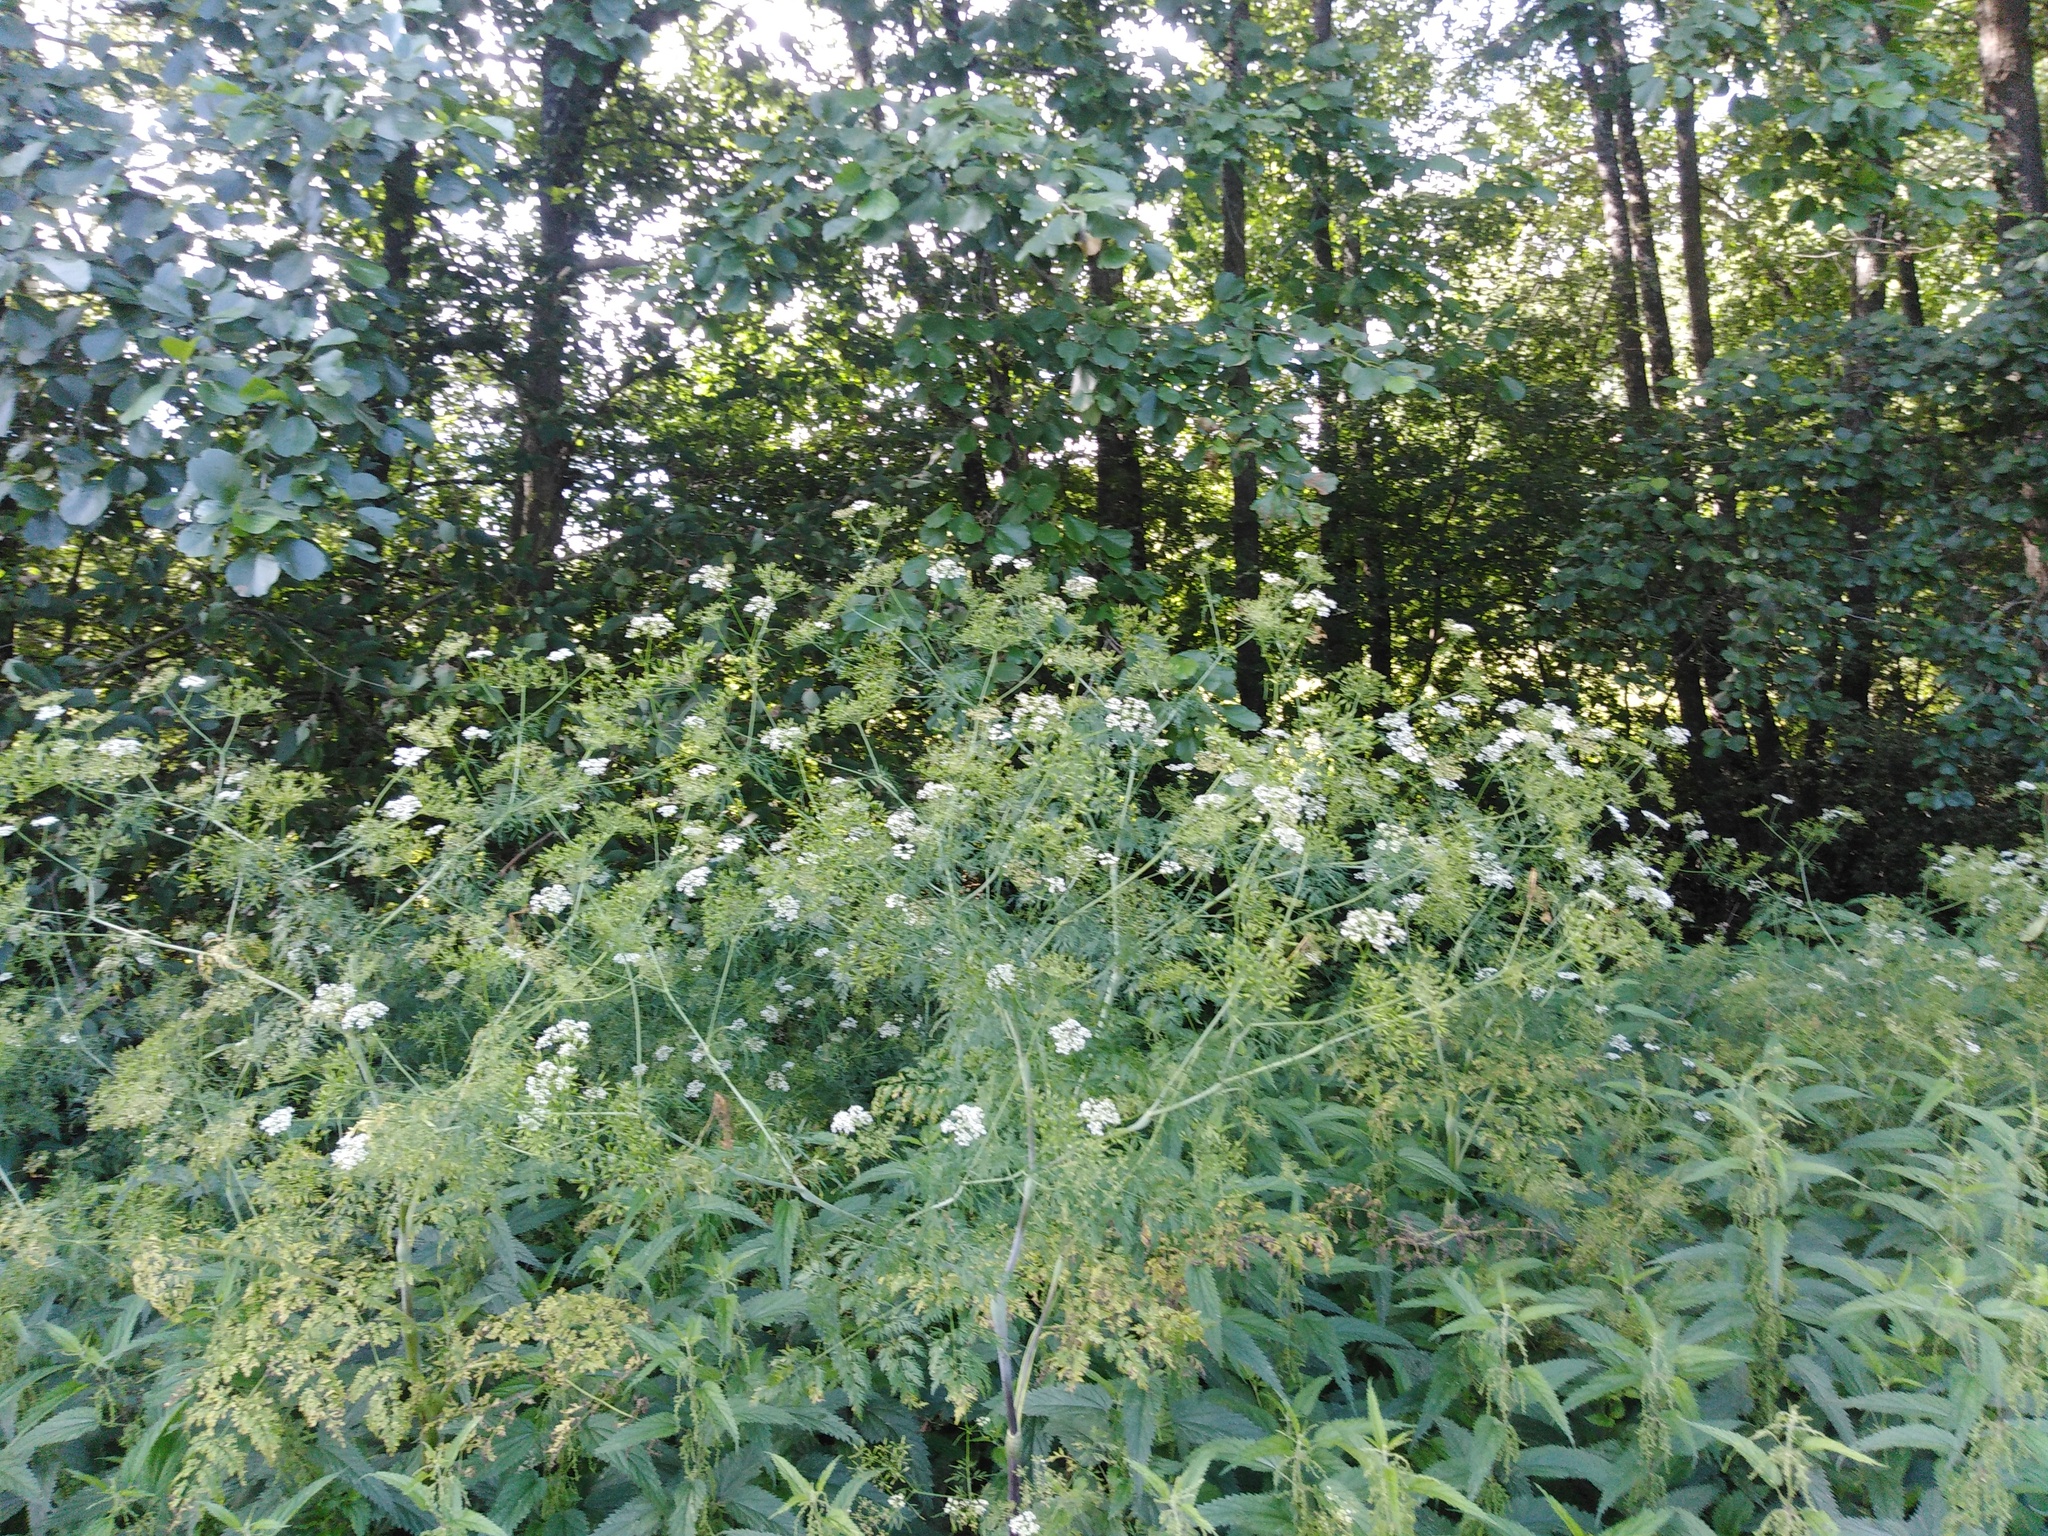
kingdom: Plantae
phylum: Tracheophyta
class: Magnoliopsida
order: Apiales
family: Apiaceae
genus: Chaerophyllum
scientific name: Chaerophyllum bulbosum
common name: Bulbous chervil
